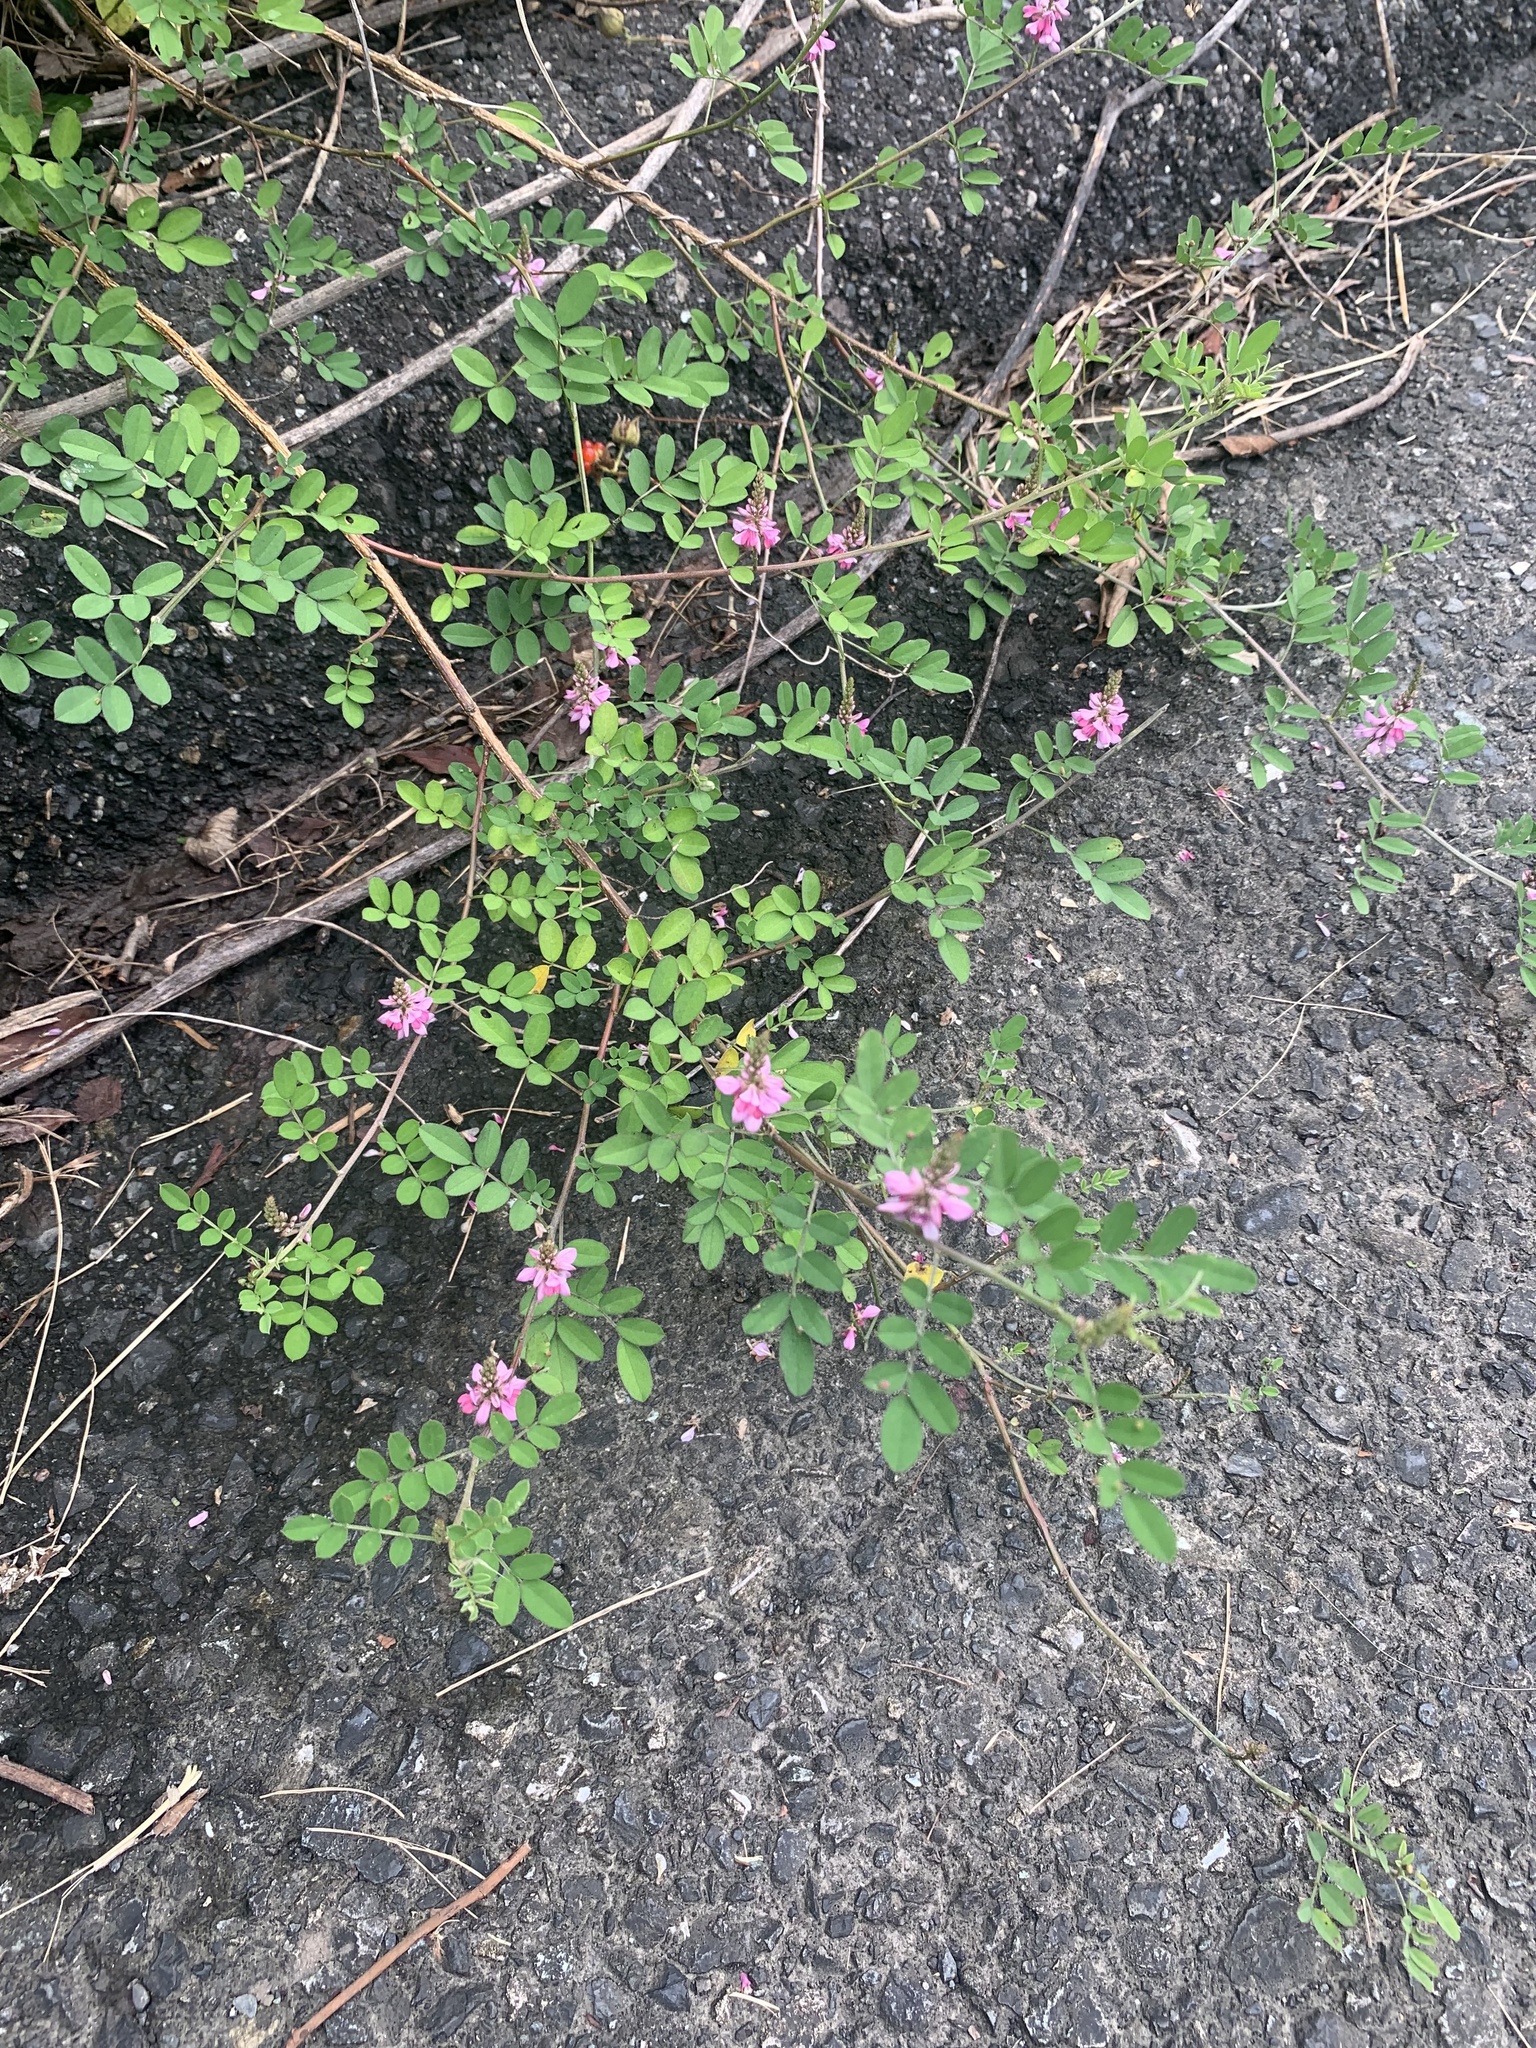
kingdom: Plantae
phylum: Tracheophyta
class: Magnoliopsida
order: Fabales
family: Fabaceae
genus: Indigofera
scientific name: Indigofera bungeana
